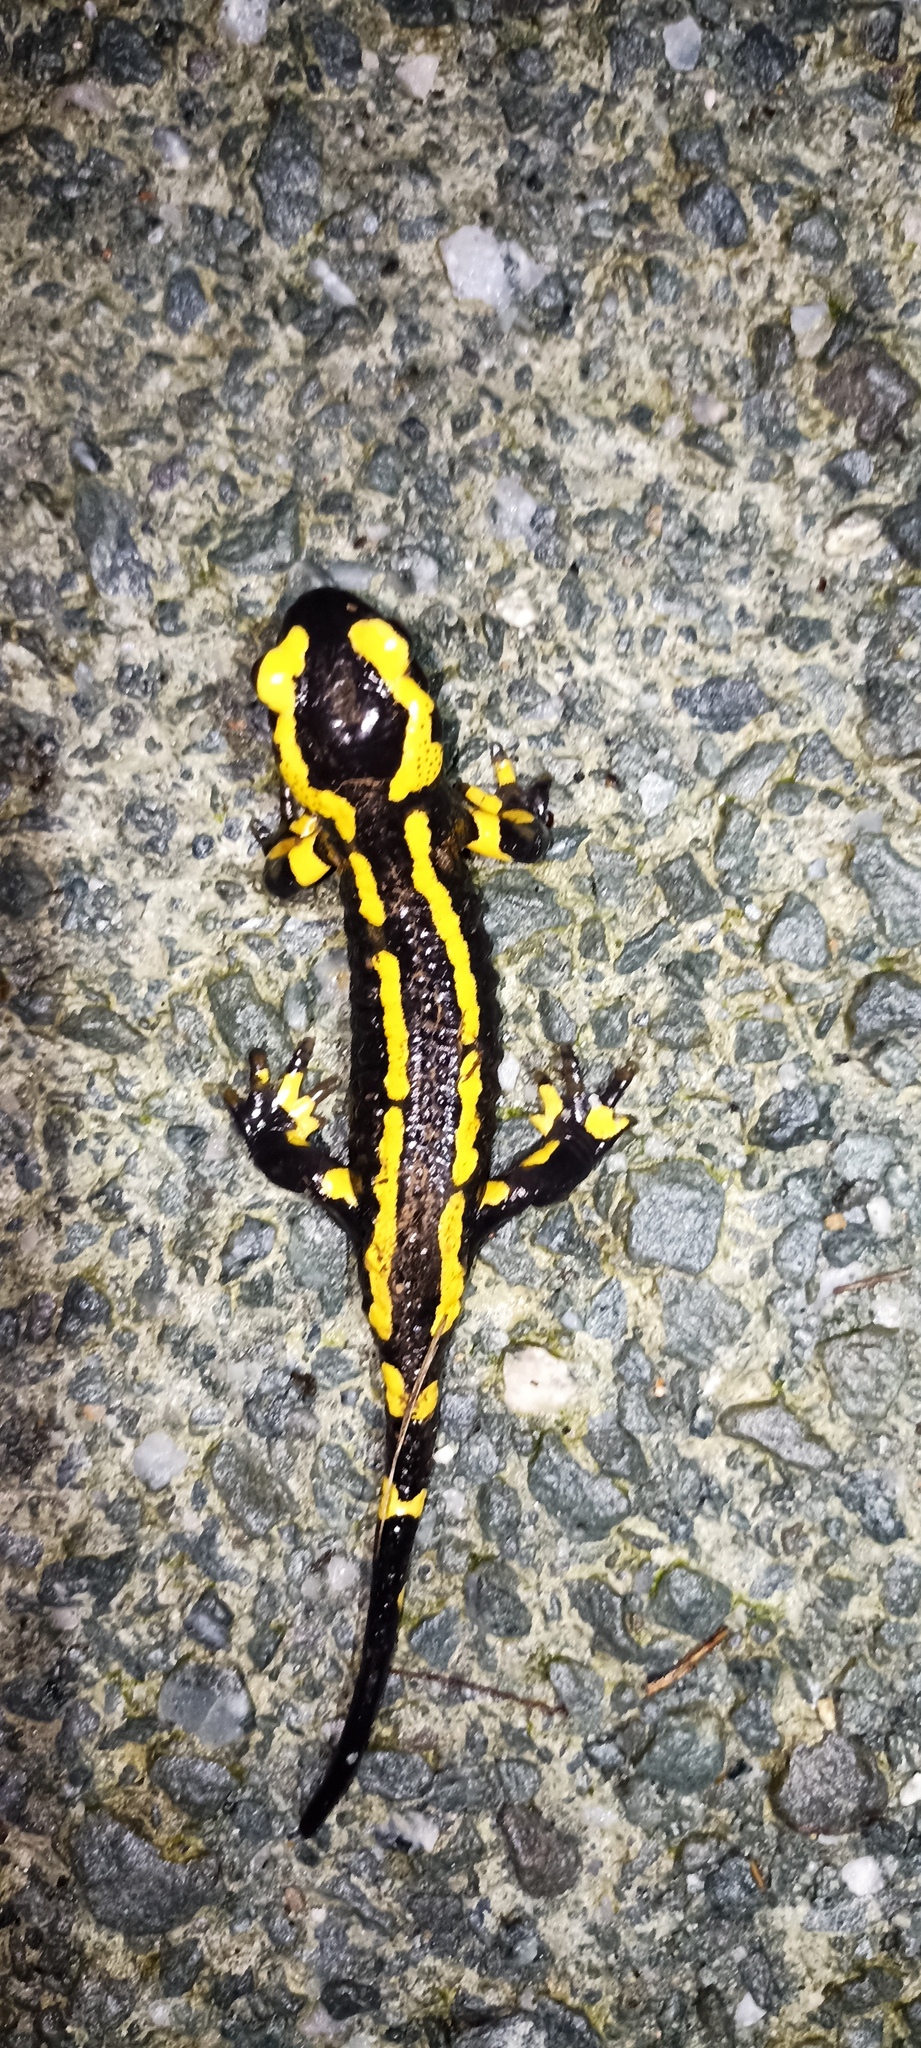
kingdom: Animalia
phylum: Chordata
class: Amphibia
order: Caudata
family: Salamandridae
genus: Salamandra
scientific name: Salamandra salamandra
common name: Fire salamander
